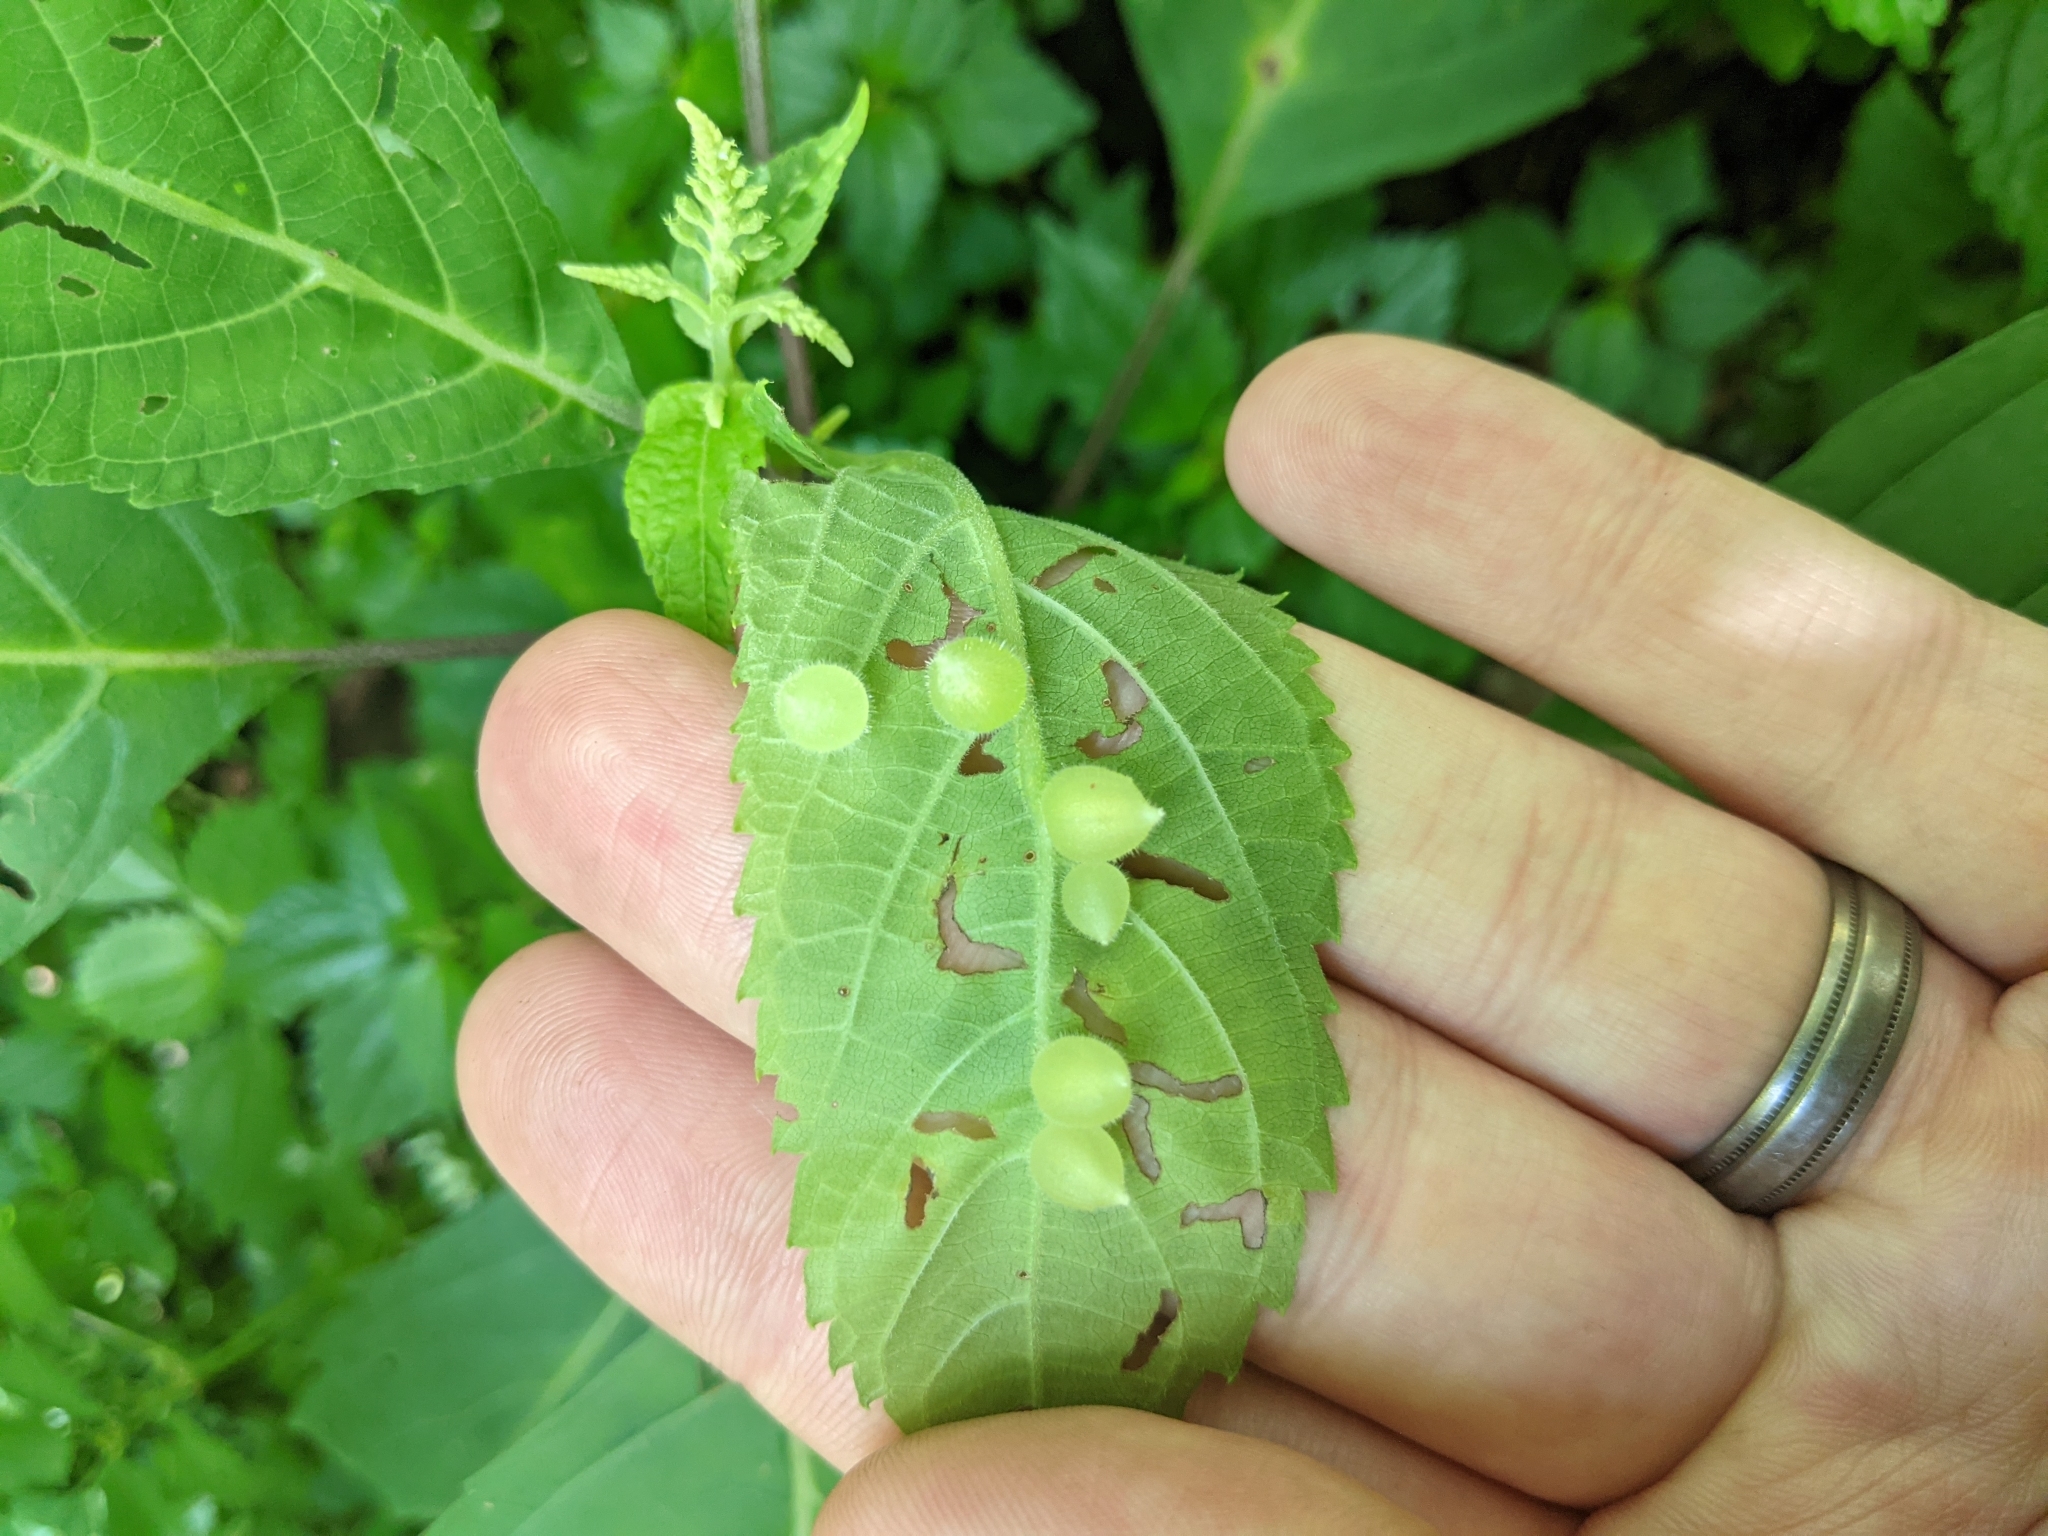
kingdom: Animalia
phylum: Arthropoda
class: Insecta
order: Diptera
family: Cecidomyiidae
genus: Dasineura
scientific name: Dasineura collinsoniae
